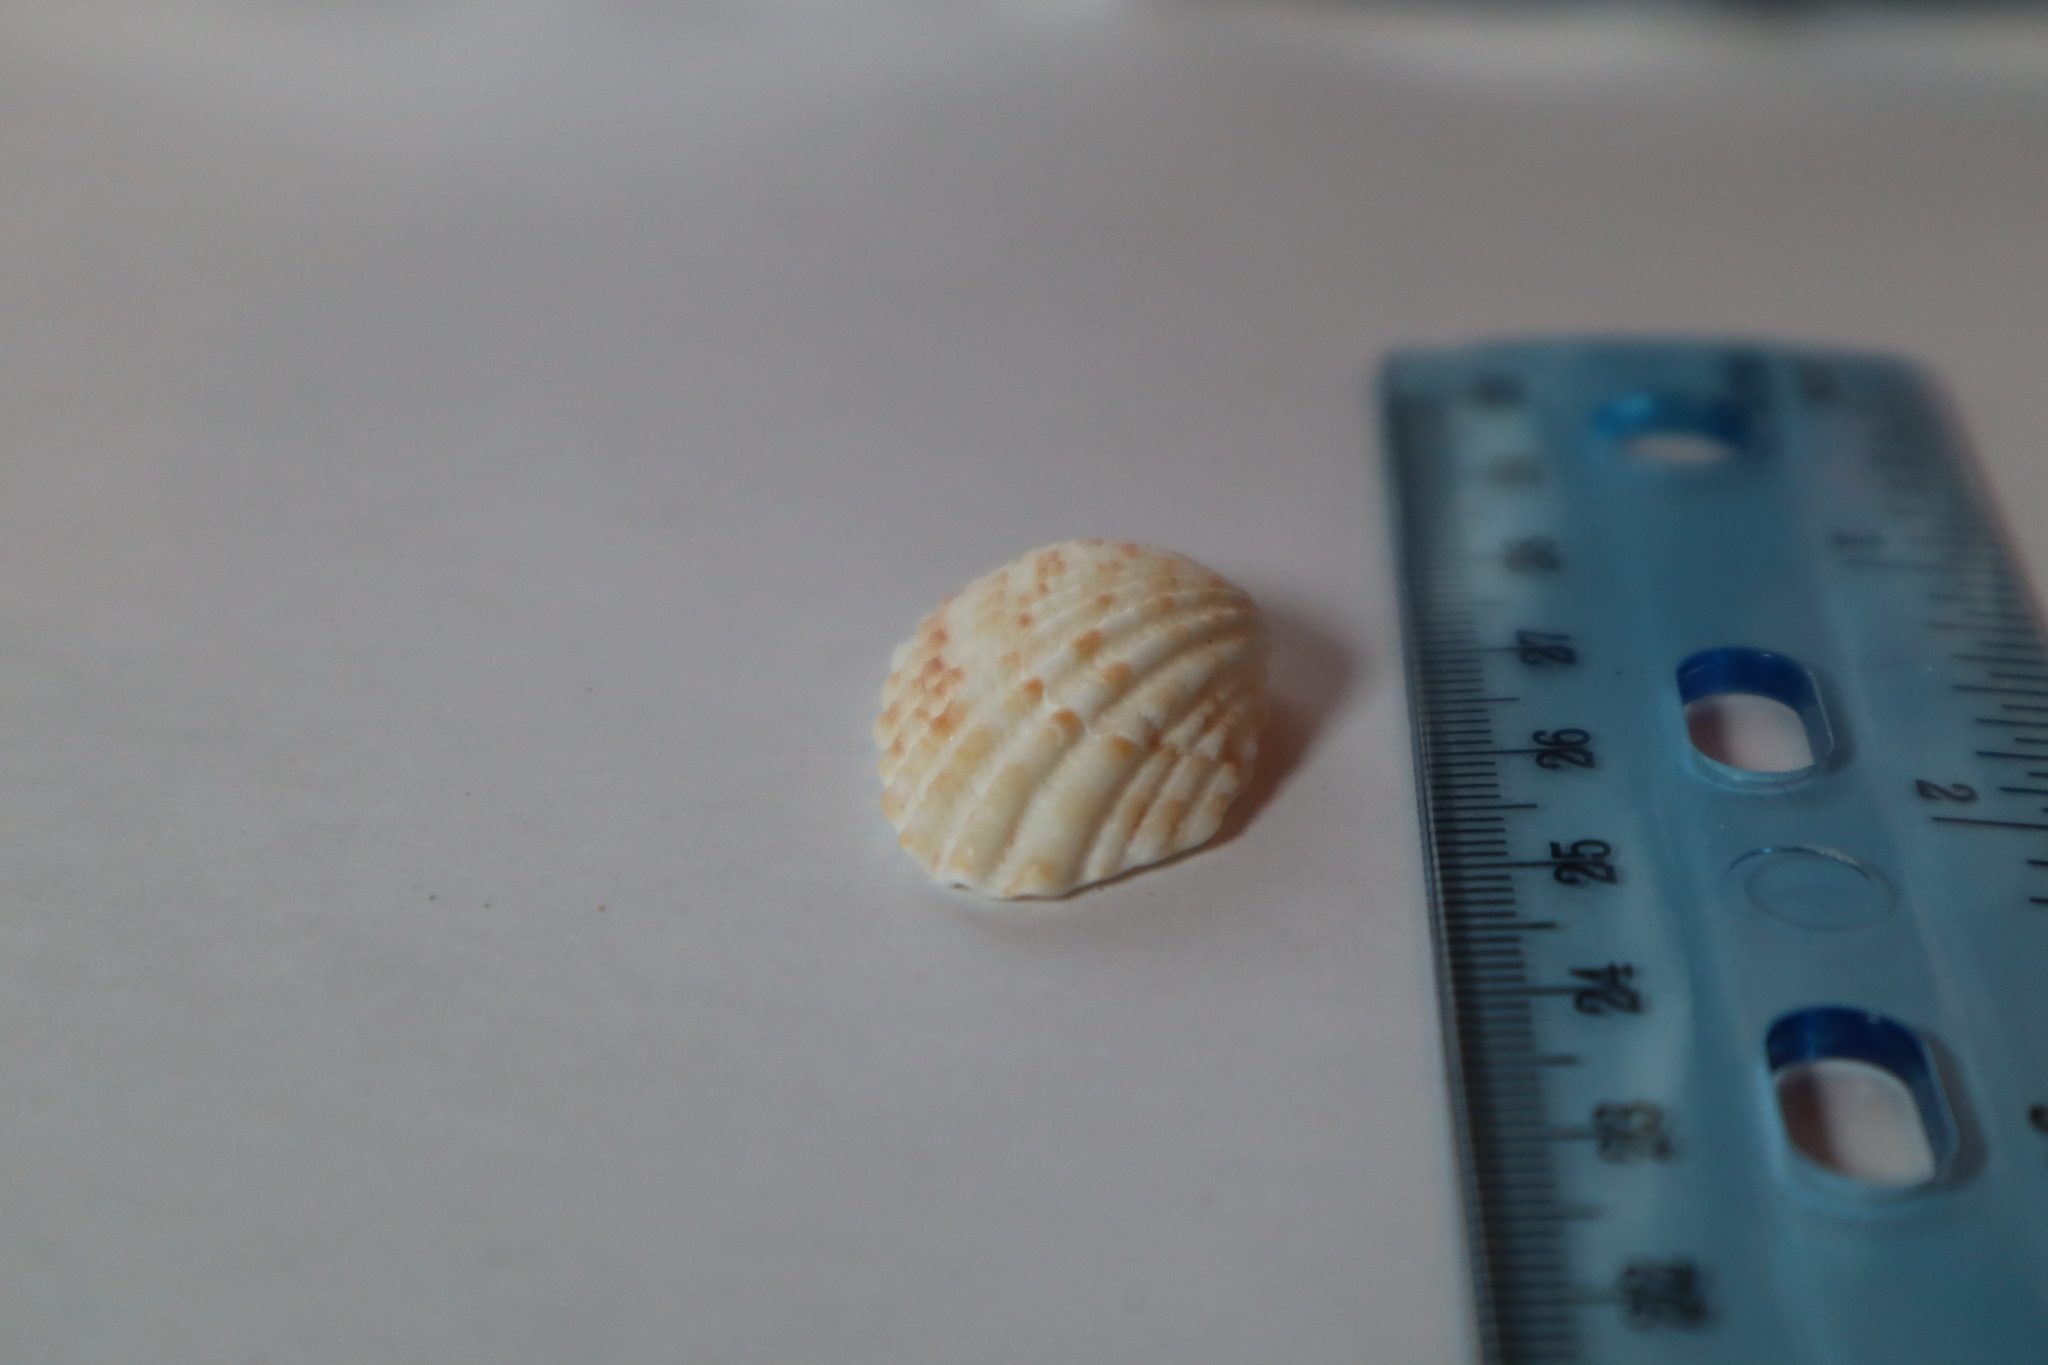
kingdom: Animalia
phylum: Mollusca
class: Bivalvia
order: Carditida
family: Carditidae
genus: Cardites
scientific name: Cardites floridanus
